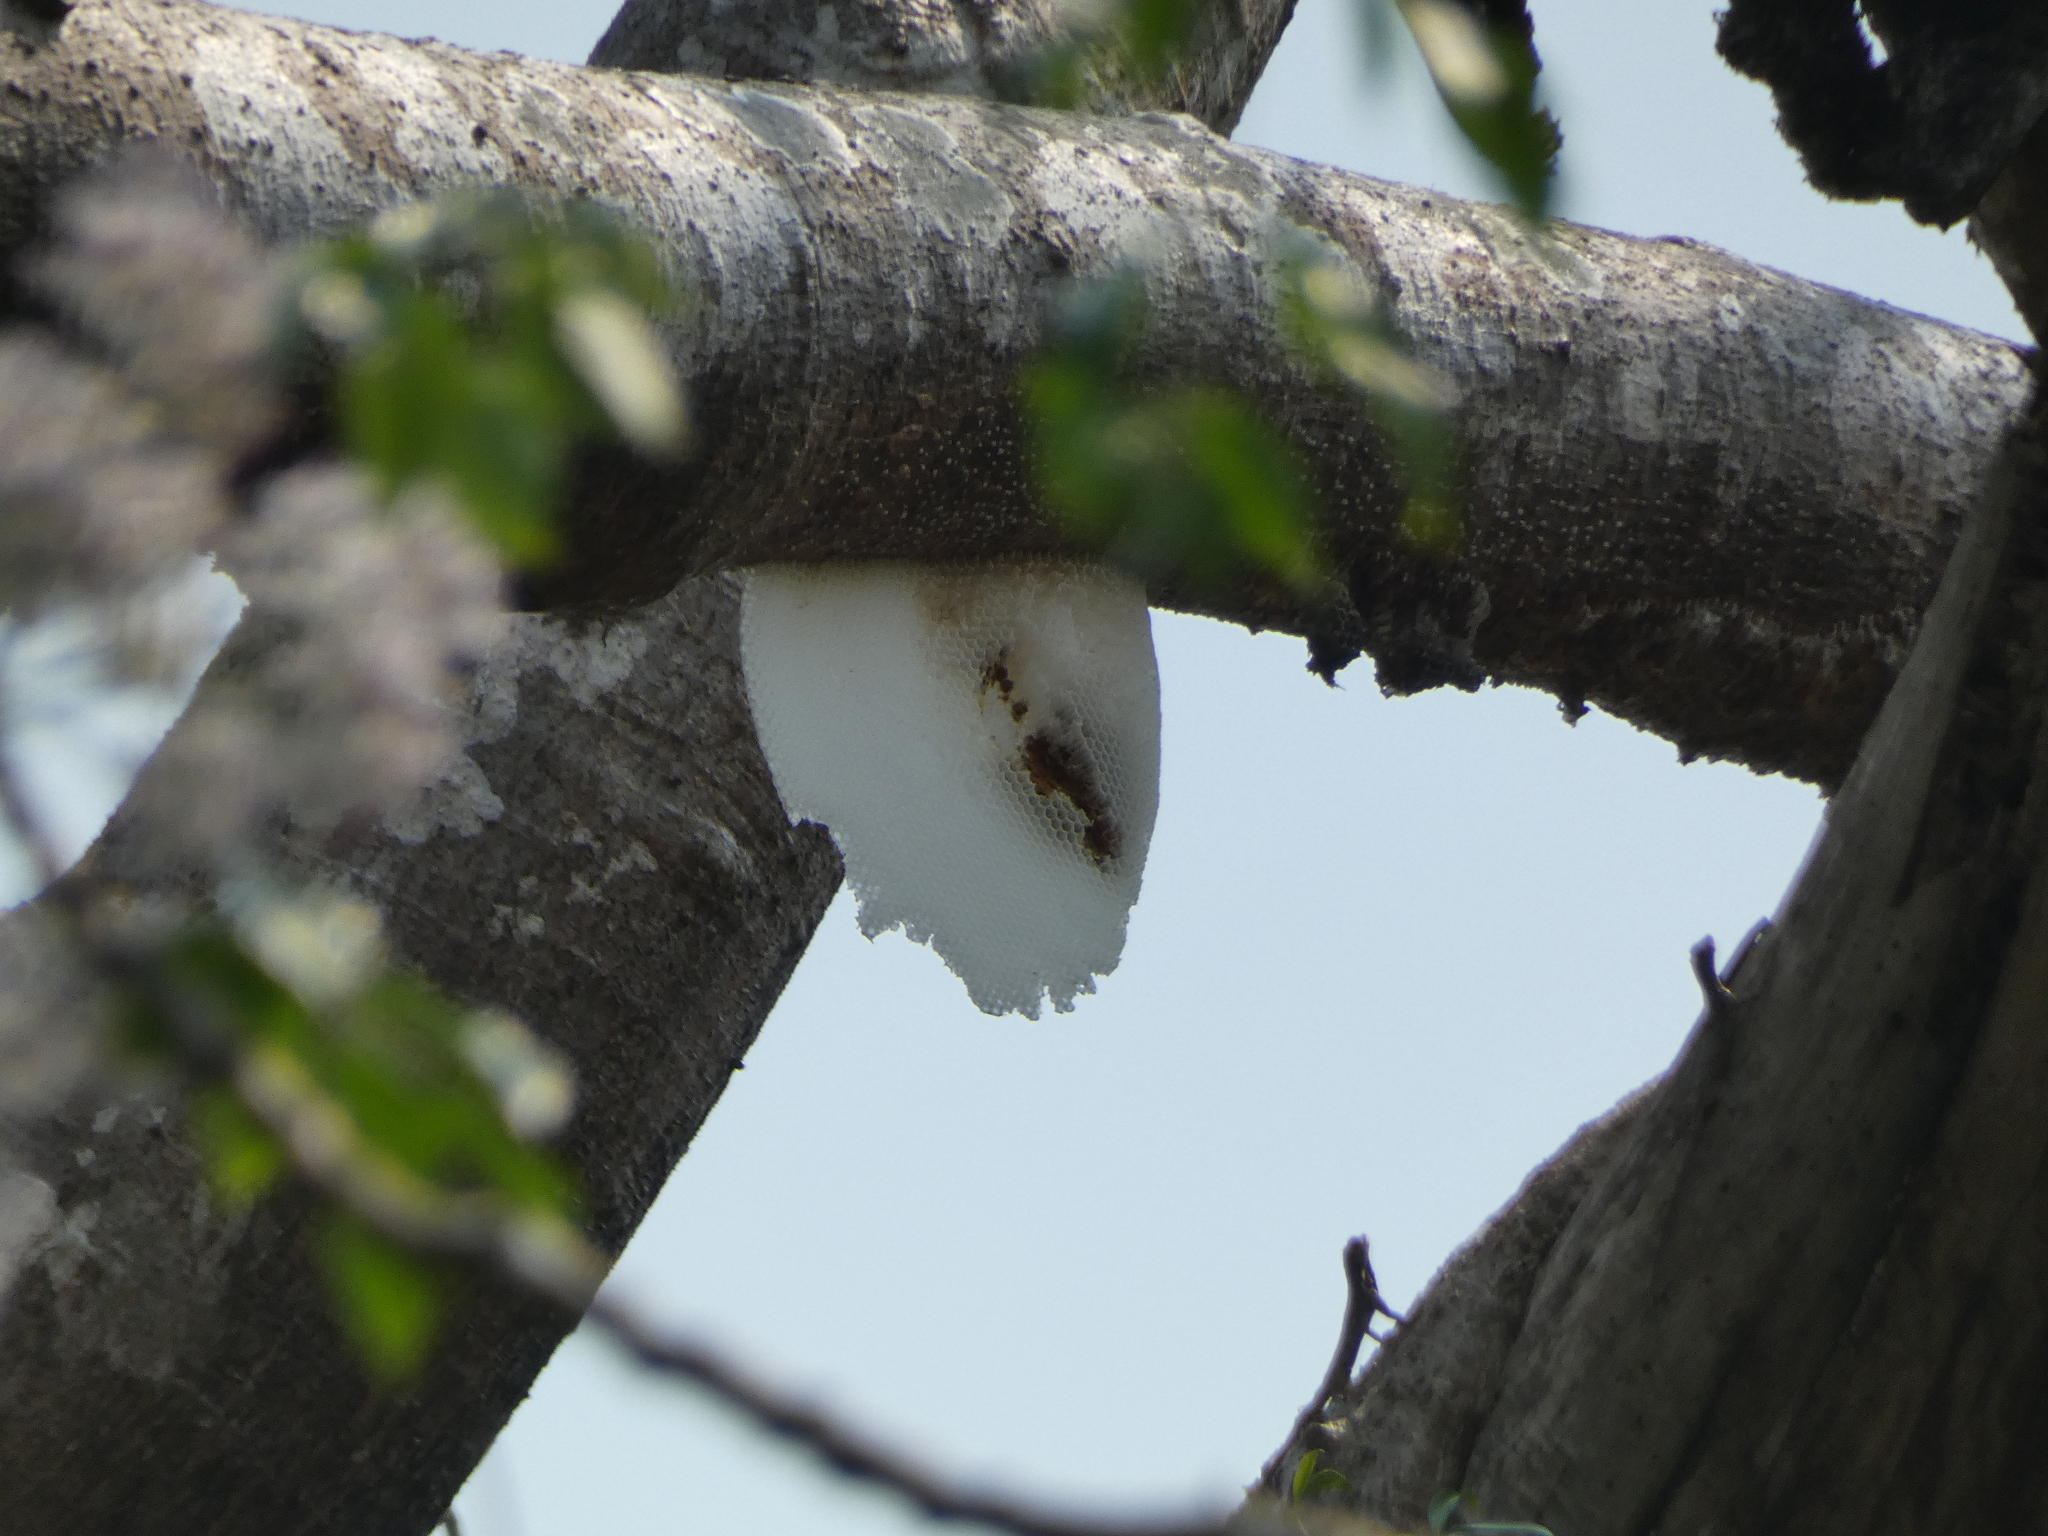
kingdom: Animalia
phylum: Arthropoda
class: Insecta
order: Hymenoptera
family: Apidae
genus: Apis
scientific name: Apis dorsata
